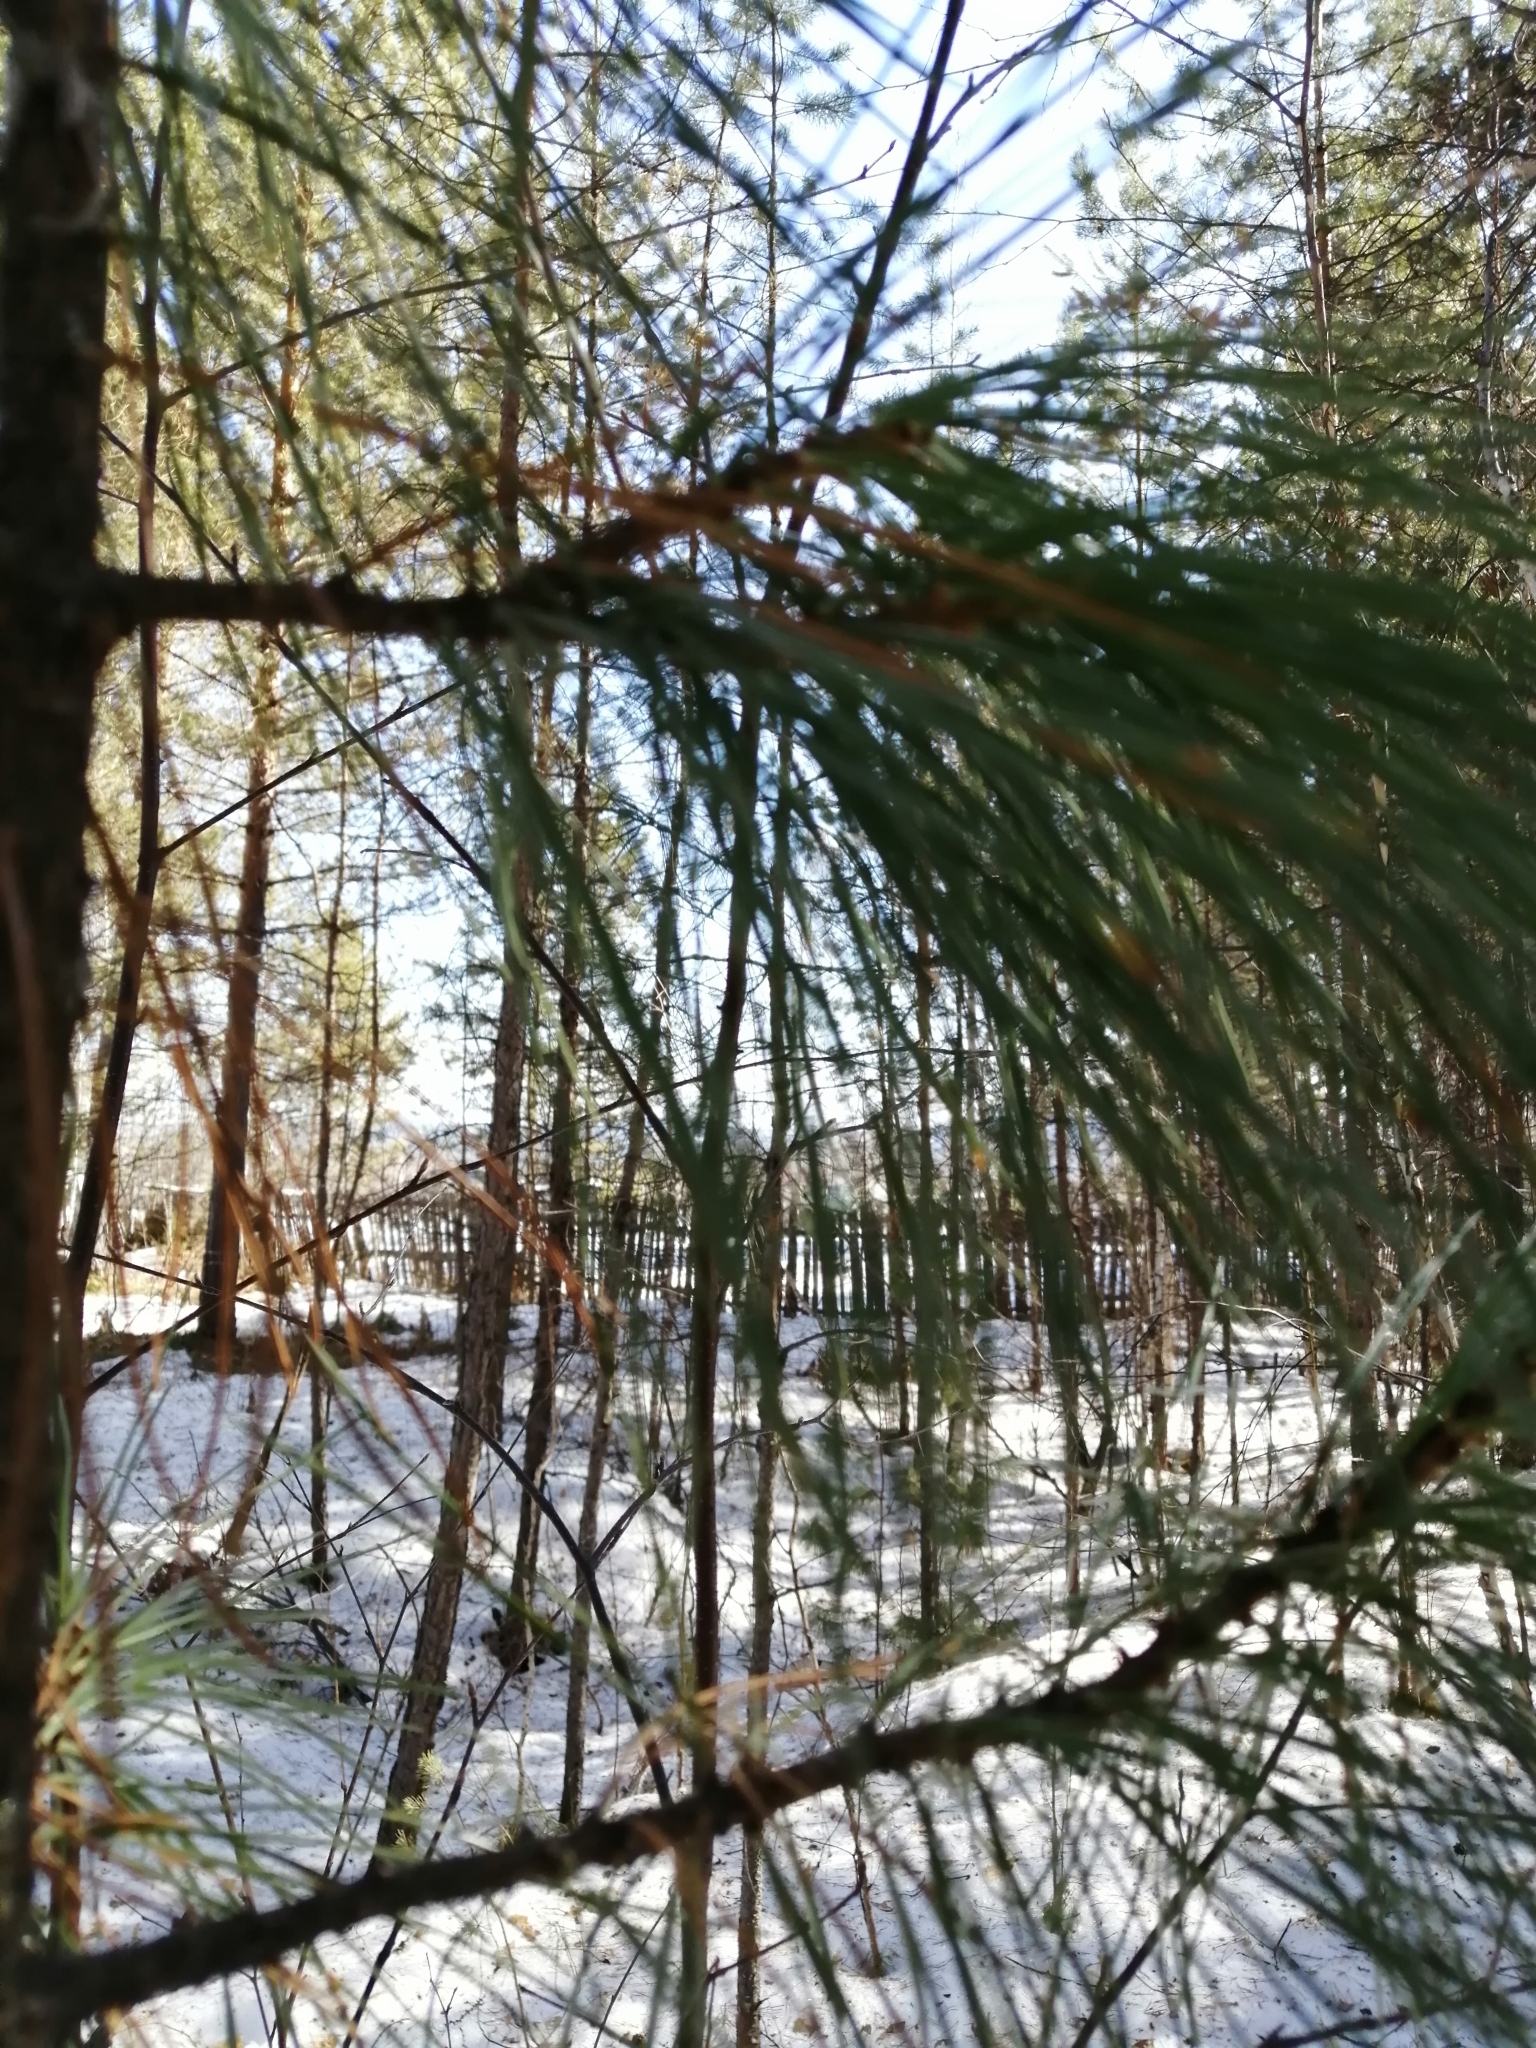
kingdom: Plantae
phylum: Tracheophyta
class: Pinopsida
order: Pinales
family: Pinaceae
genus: Pinus
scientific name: Pinus sibirica
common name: Siberian pine
